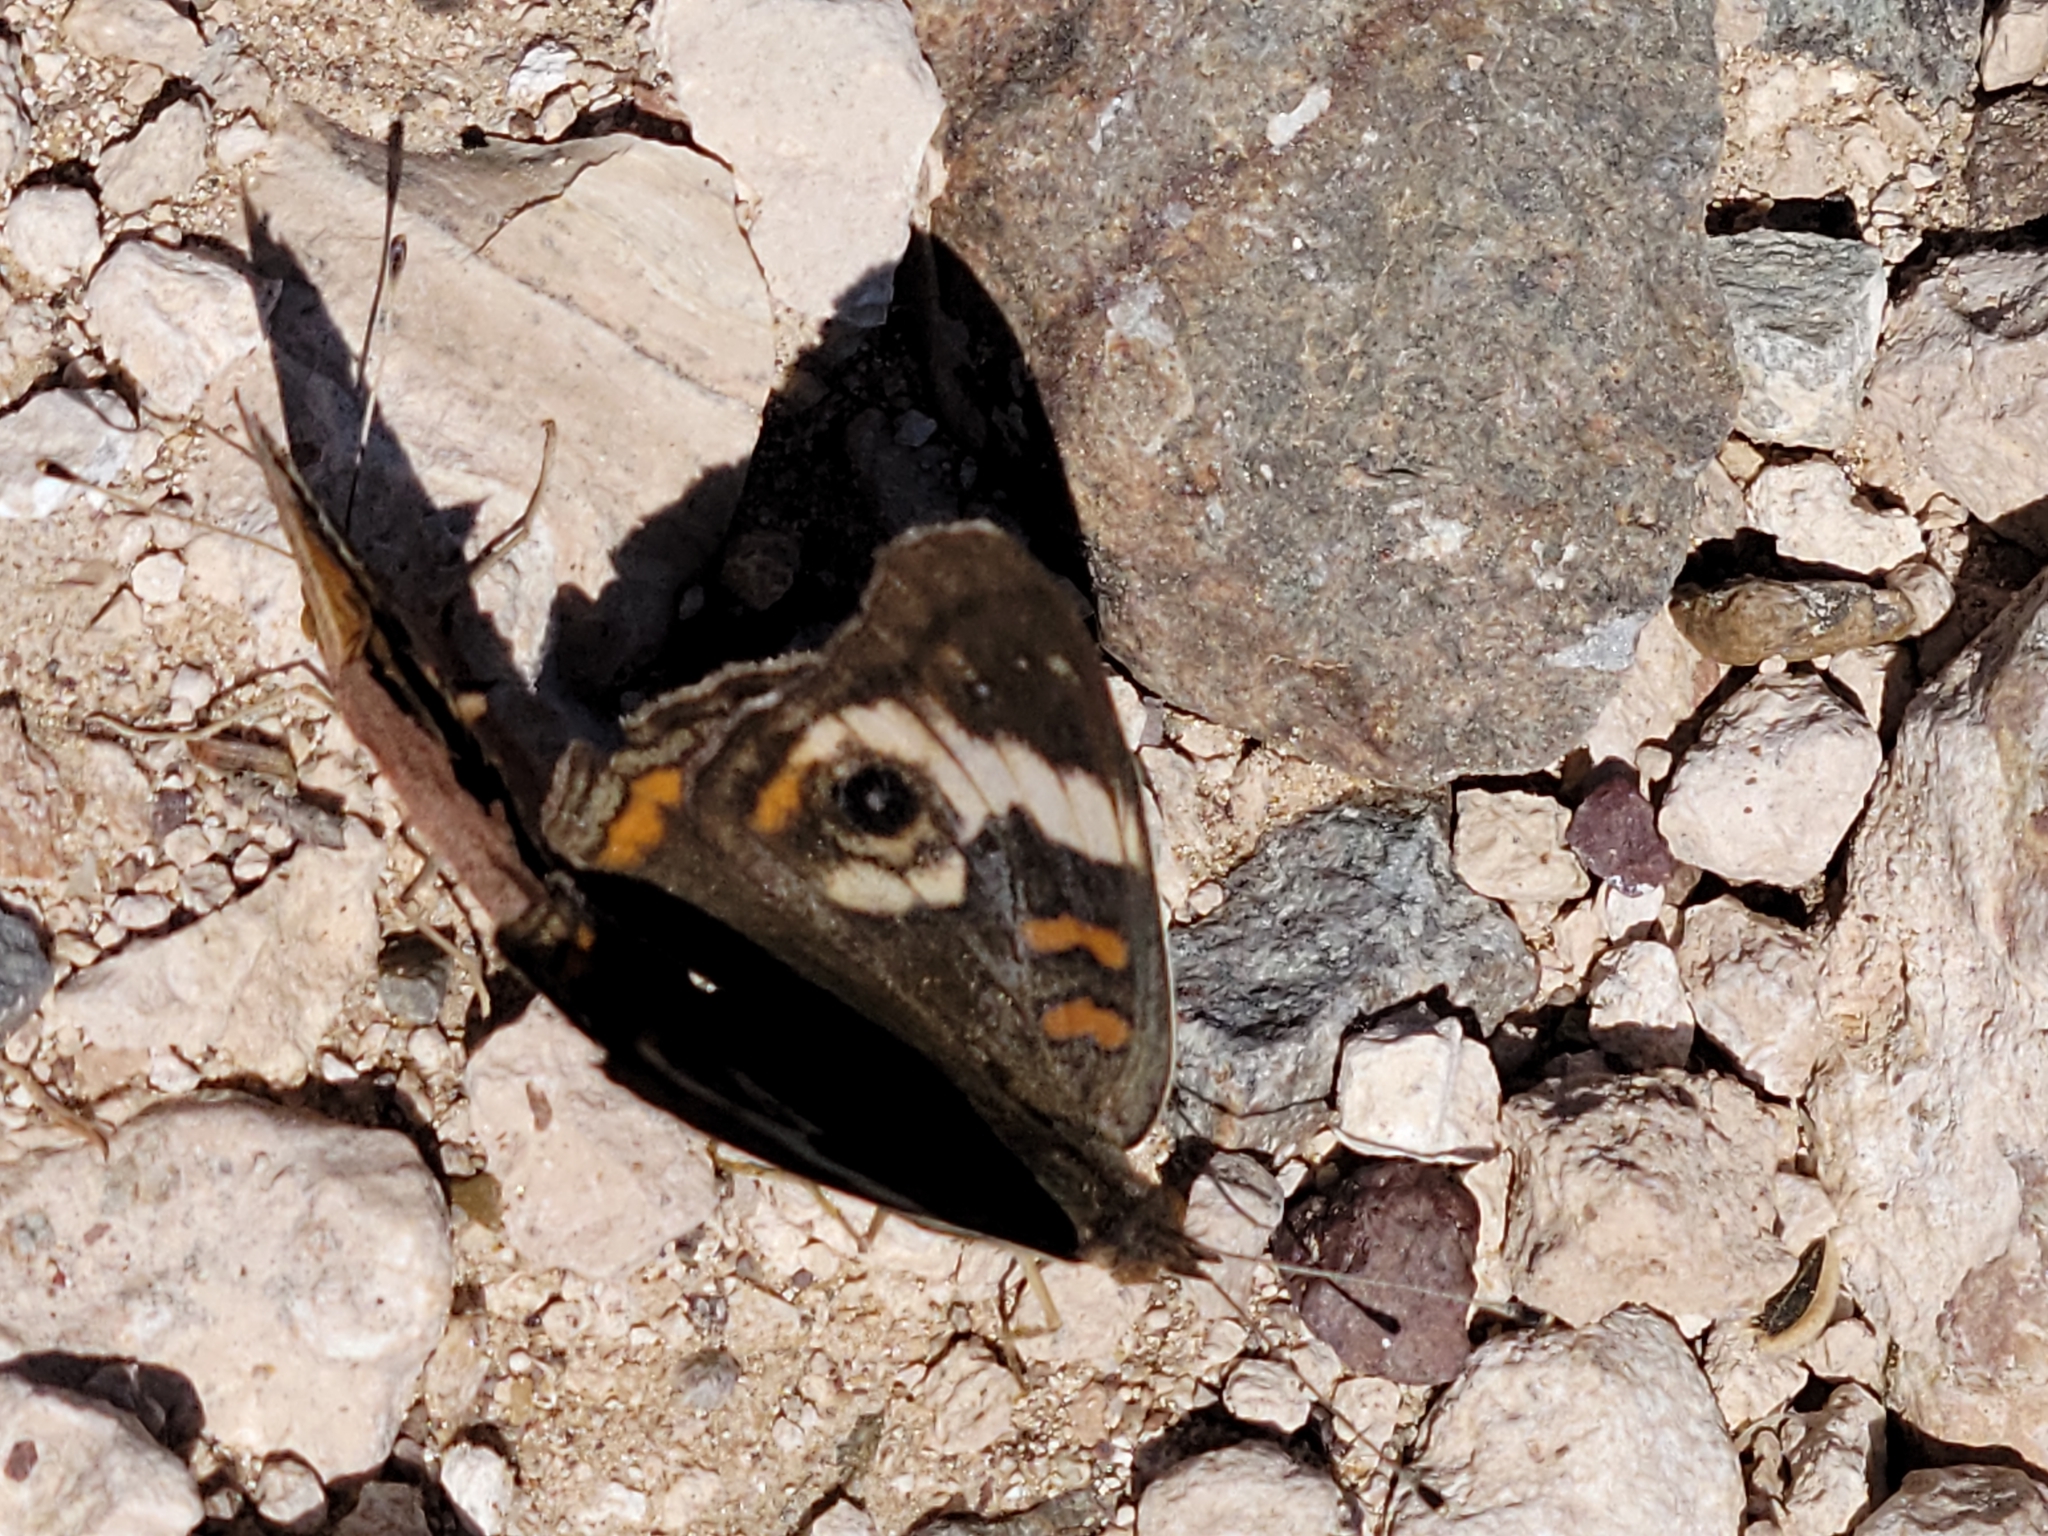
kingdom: Animalia
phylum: Arthropoda
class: Insecta
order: Lepidoptera
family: Nymphalidae
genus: Junonia
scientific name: Junonia coenia
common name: Common buckeye
